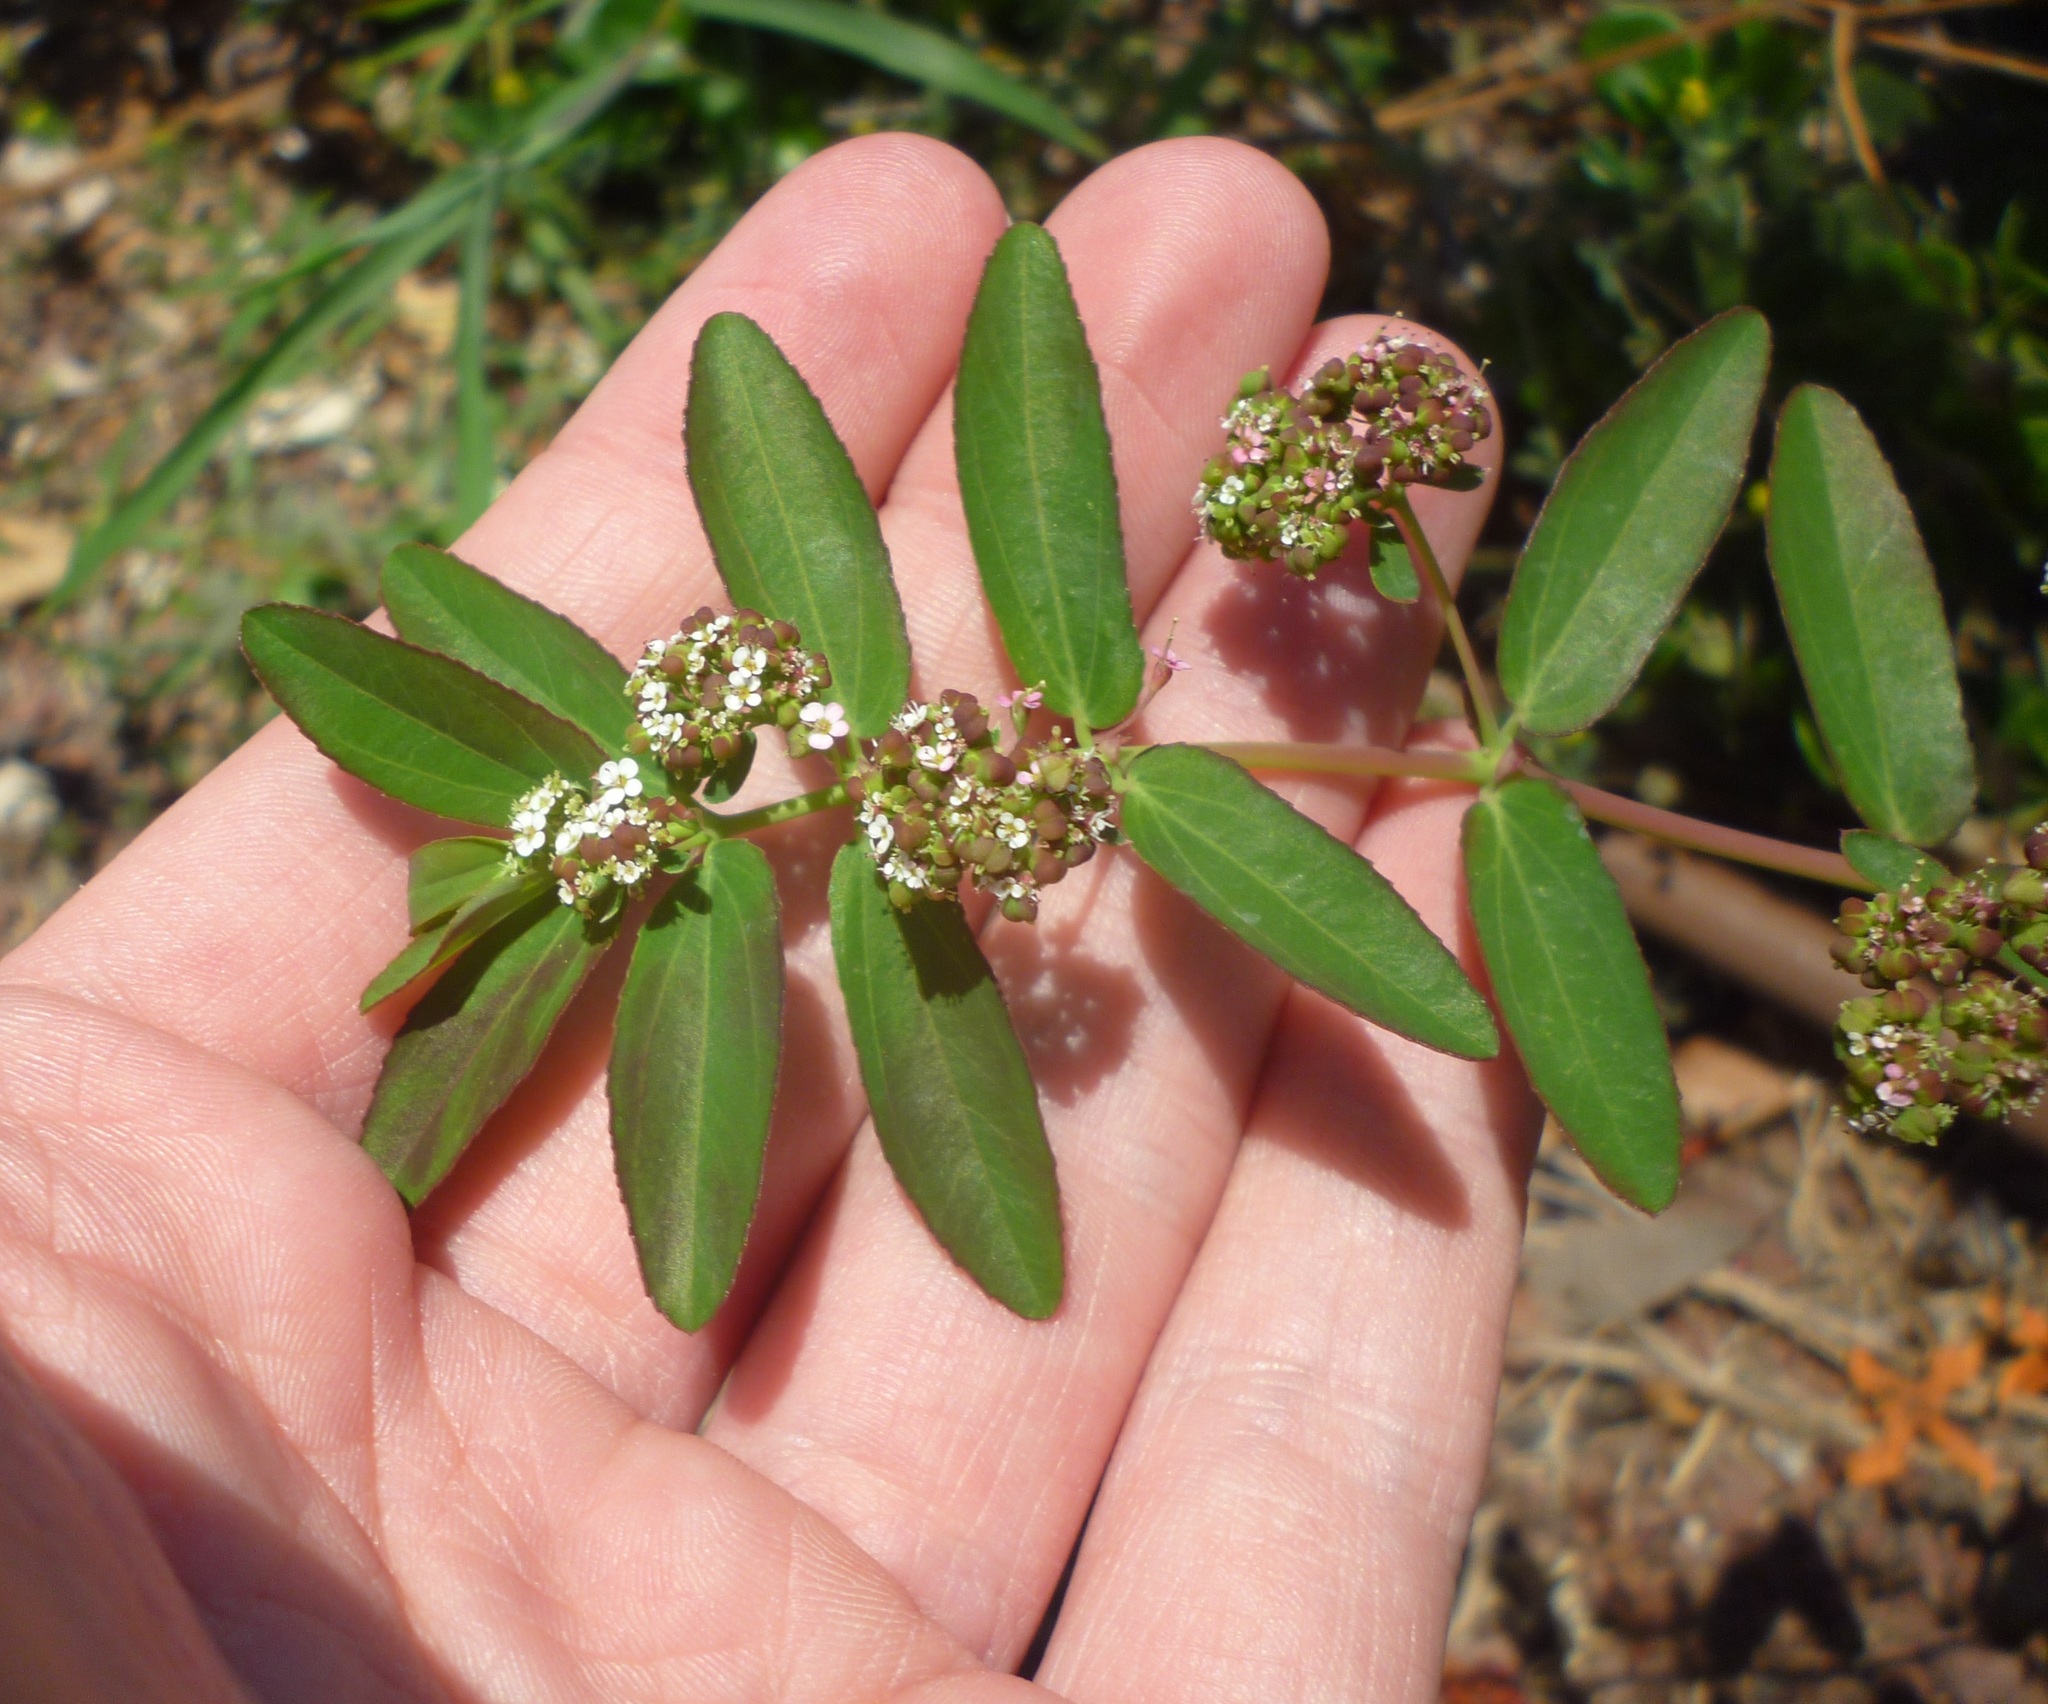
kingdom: Plantae
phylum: Tracheophyta
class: Magnoliopsida
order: Malpighiales
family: Euphorbiaceae
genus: Euphorbia
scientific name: Euphorbia hypericifolia
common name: Graceful sandmat
